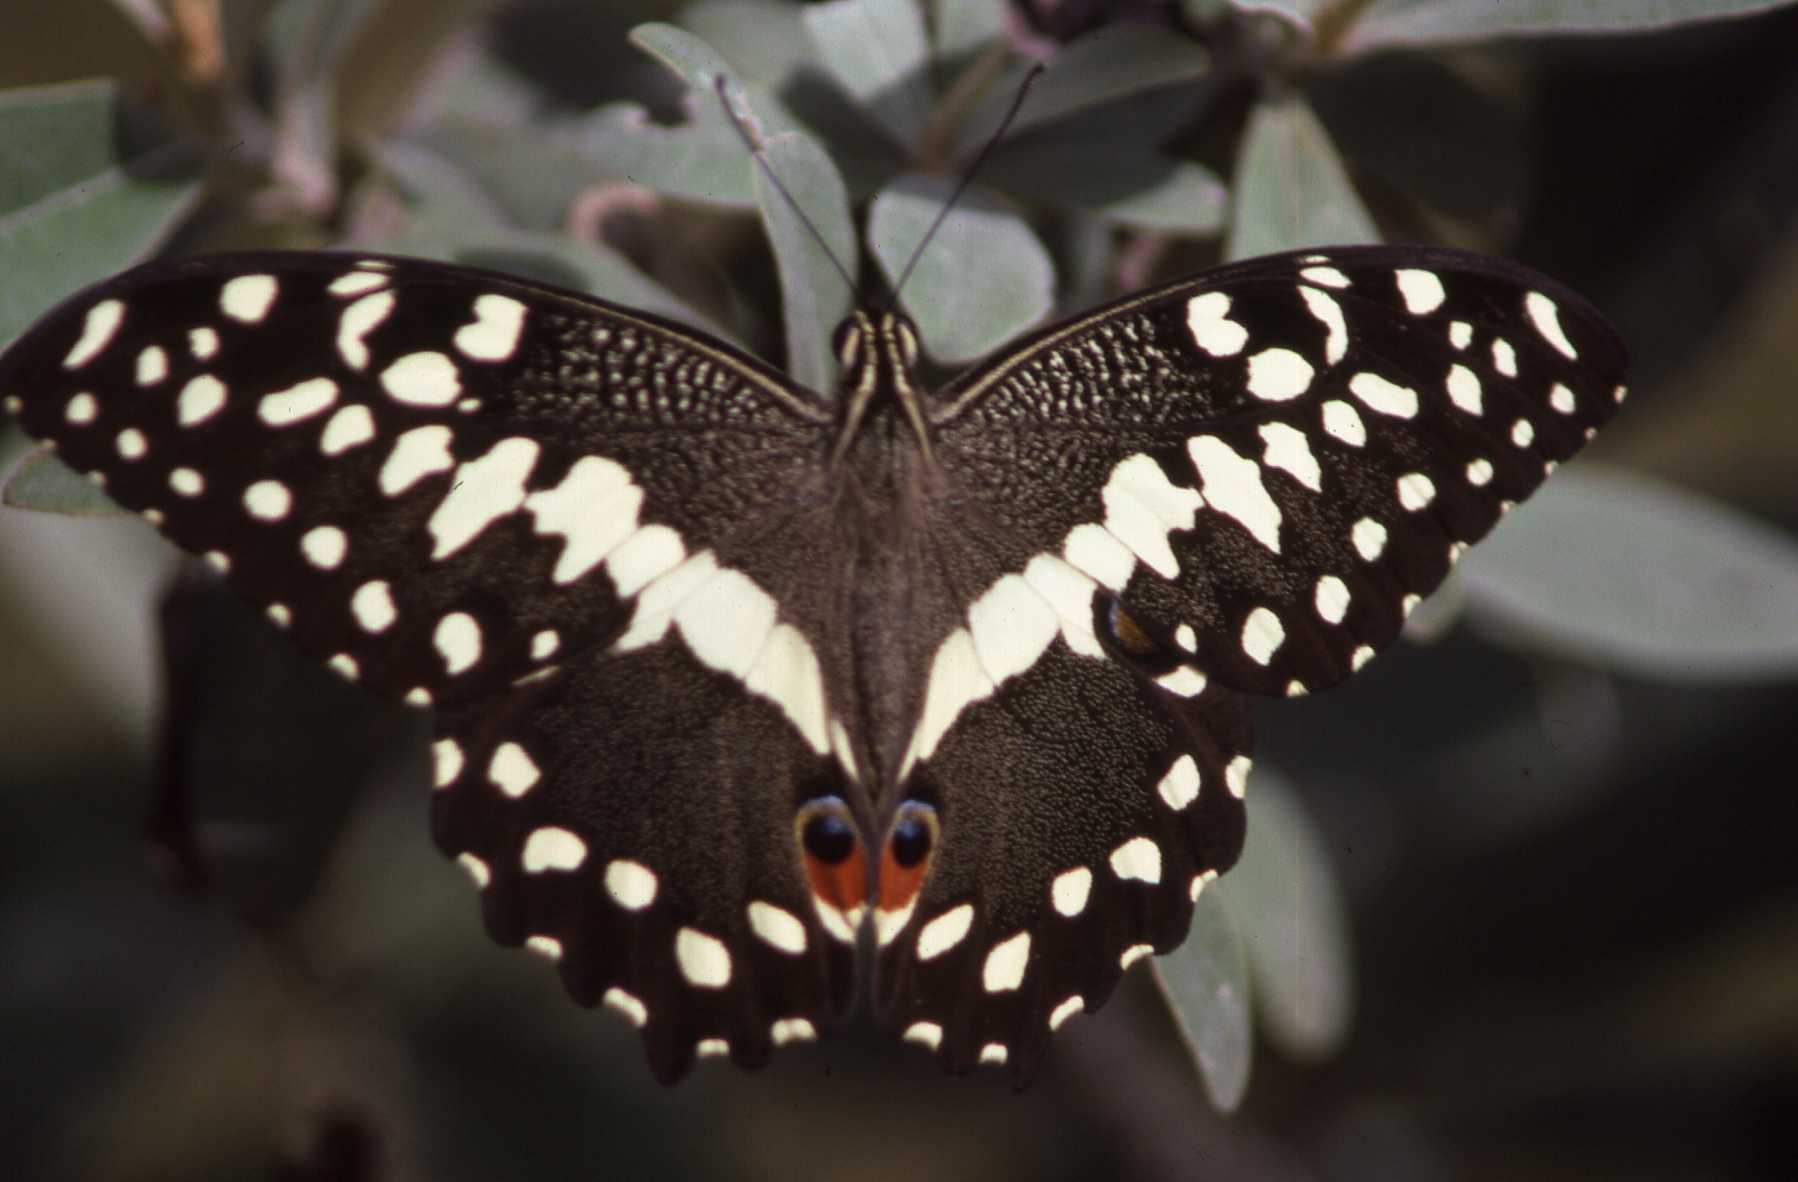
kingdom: Animalia
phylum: Arthropoda
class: Insecta
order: Lepidoptera
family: Papilionidae
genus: Papilio
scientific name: Papilio demodocus
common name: Christmas butterfly
